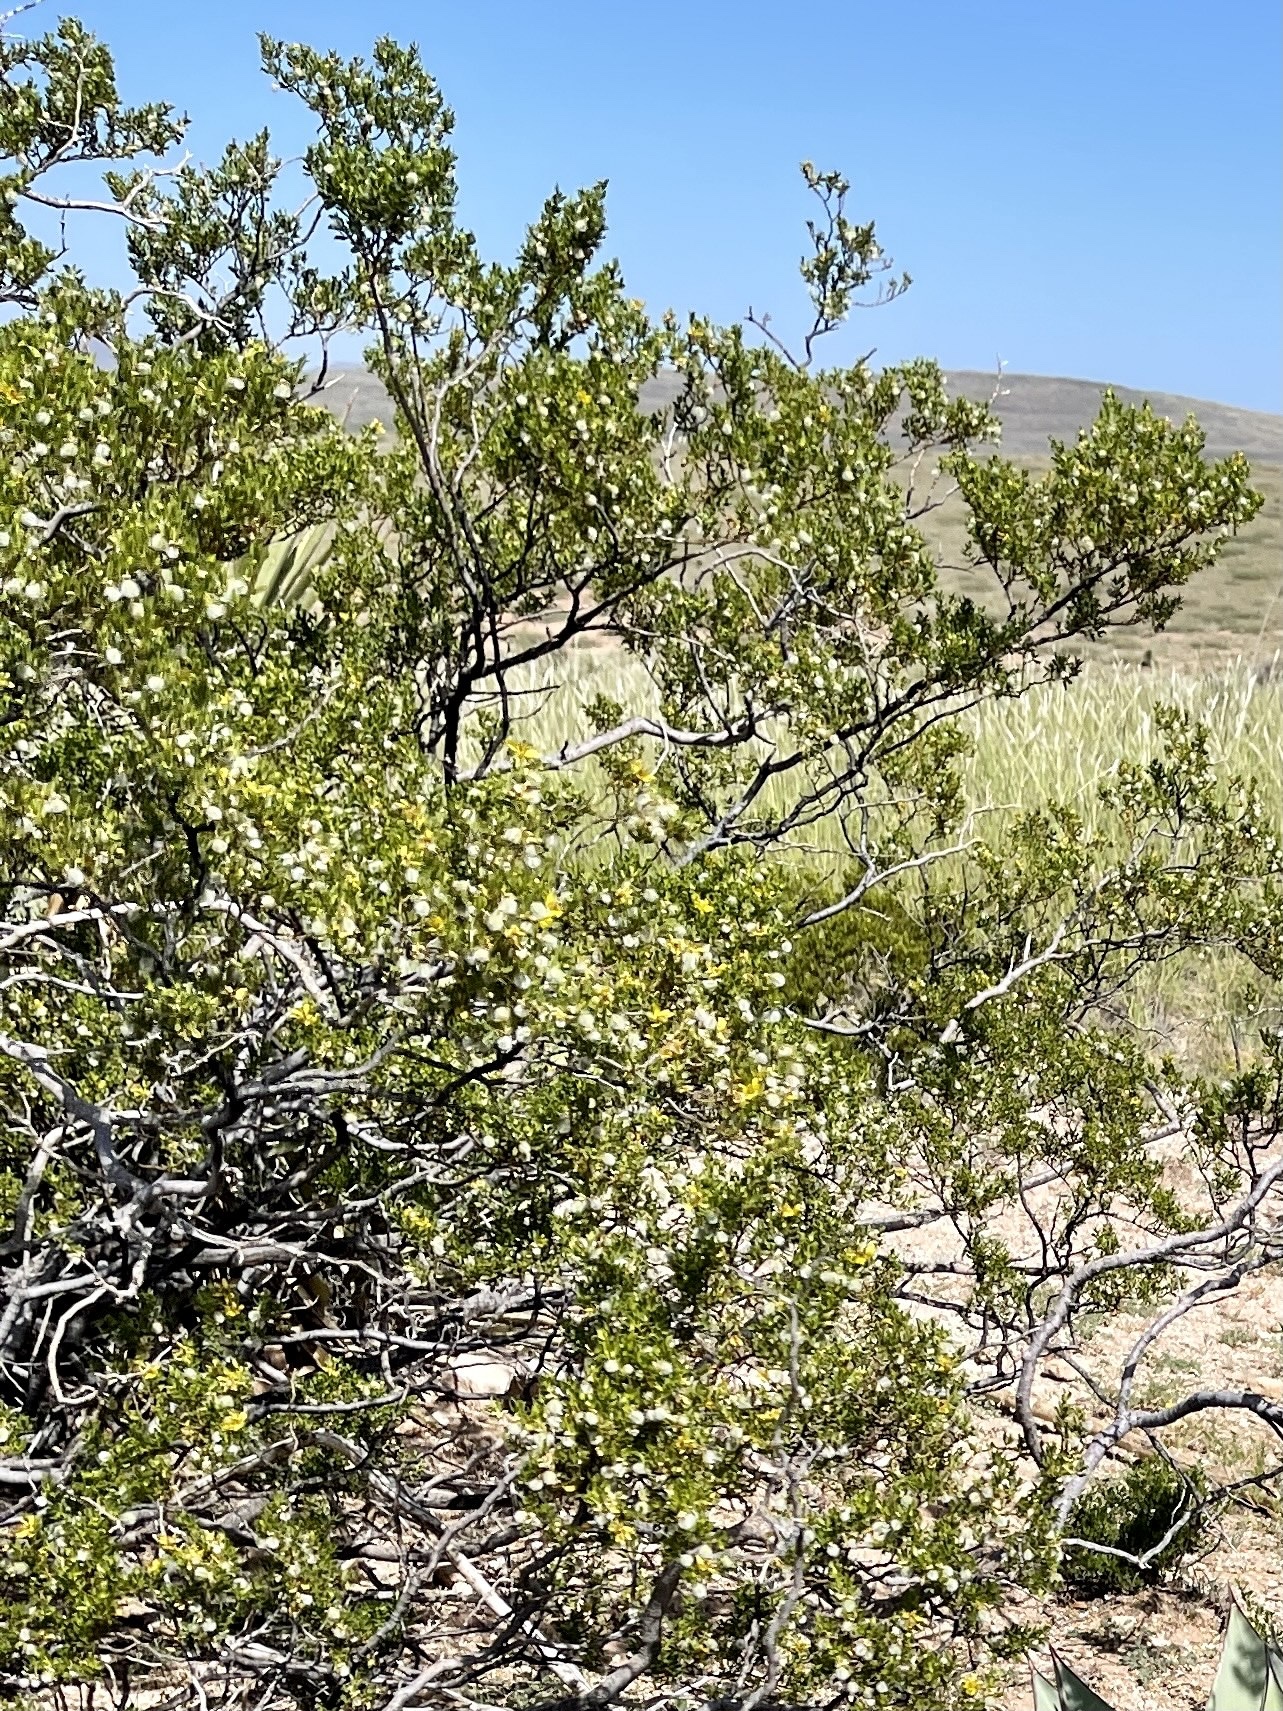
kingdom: Plantae
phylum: Tracheophyta
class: Magnoliopsida
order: Zygophyllales
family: Zygophyllaceae
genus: Larrea
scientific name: Larrea tridentata
